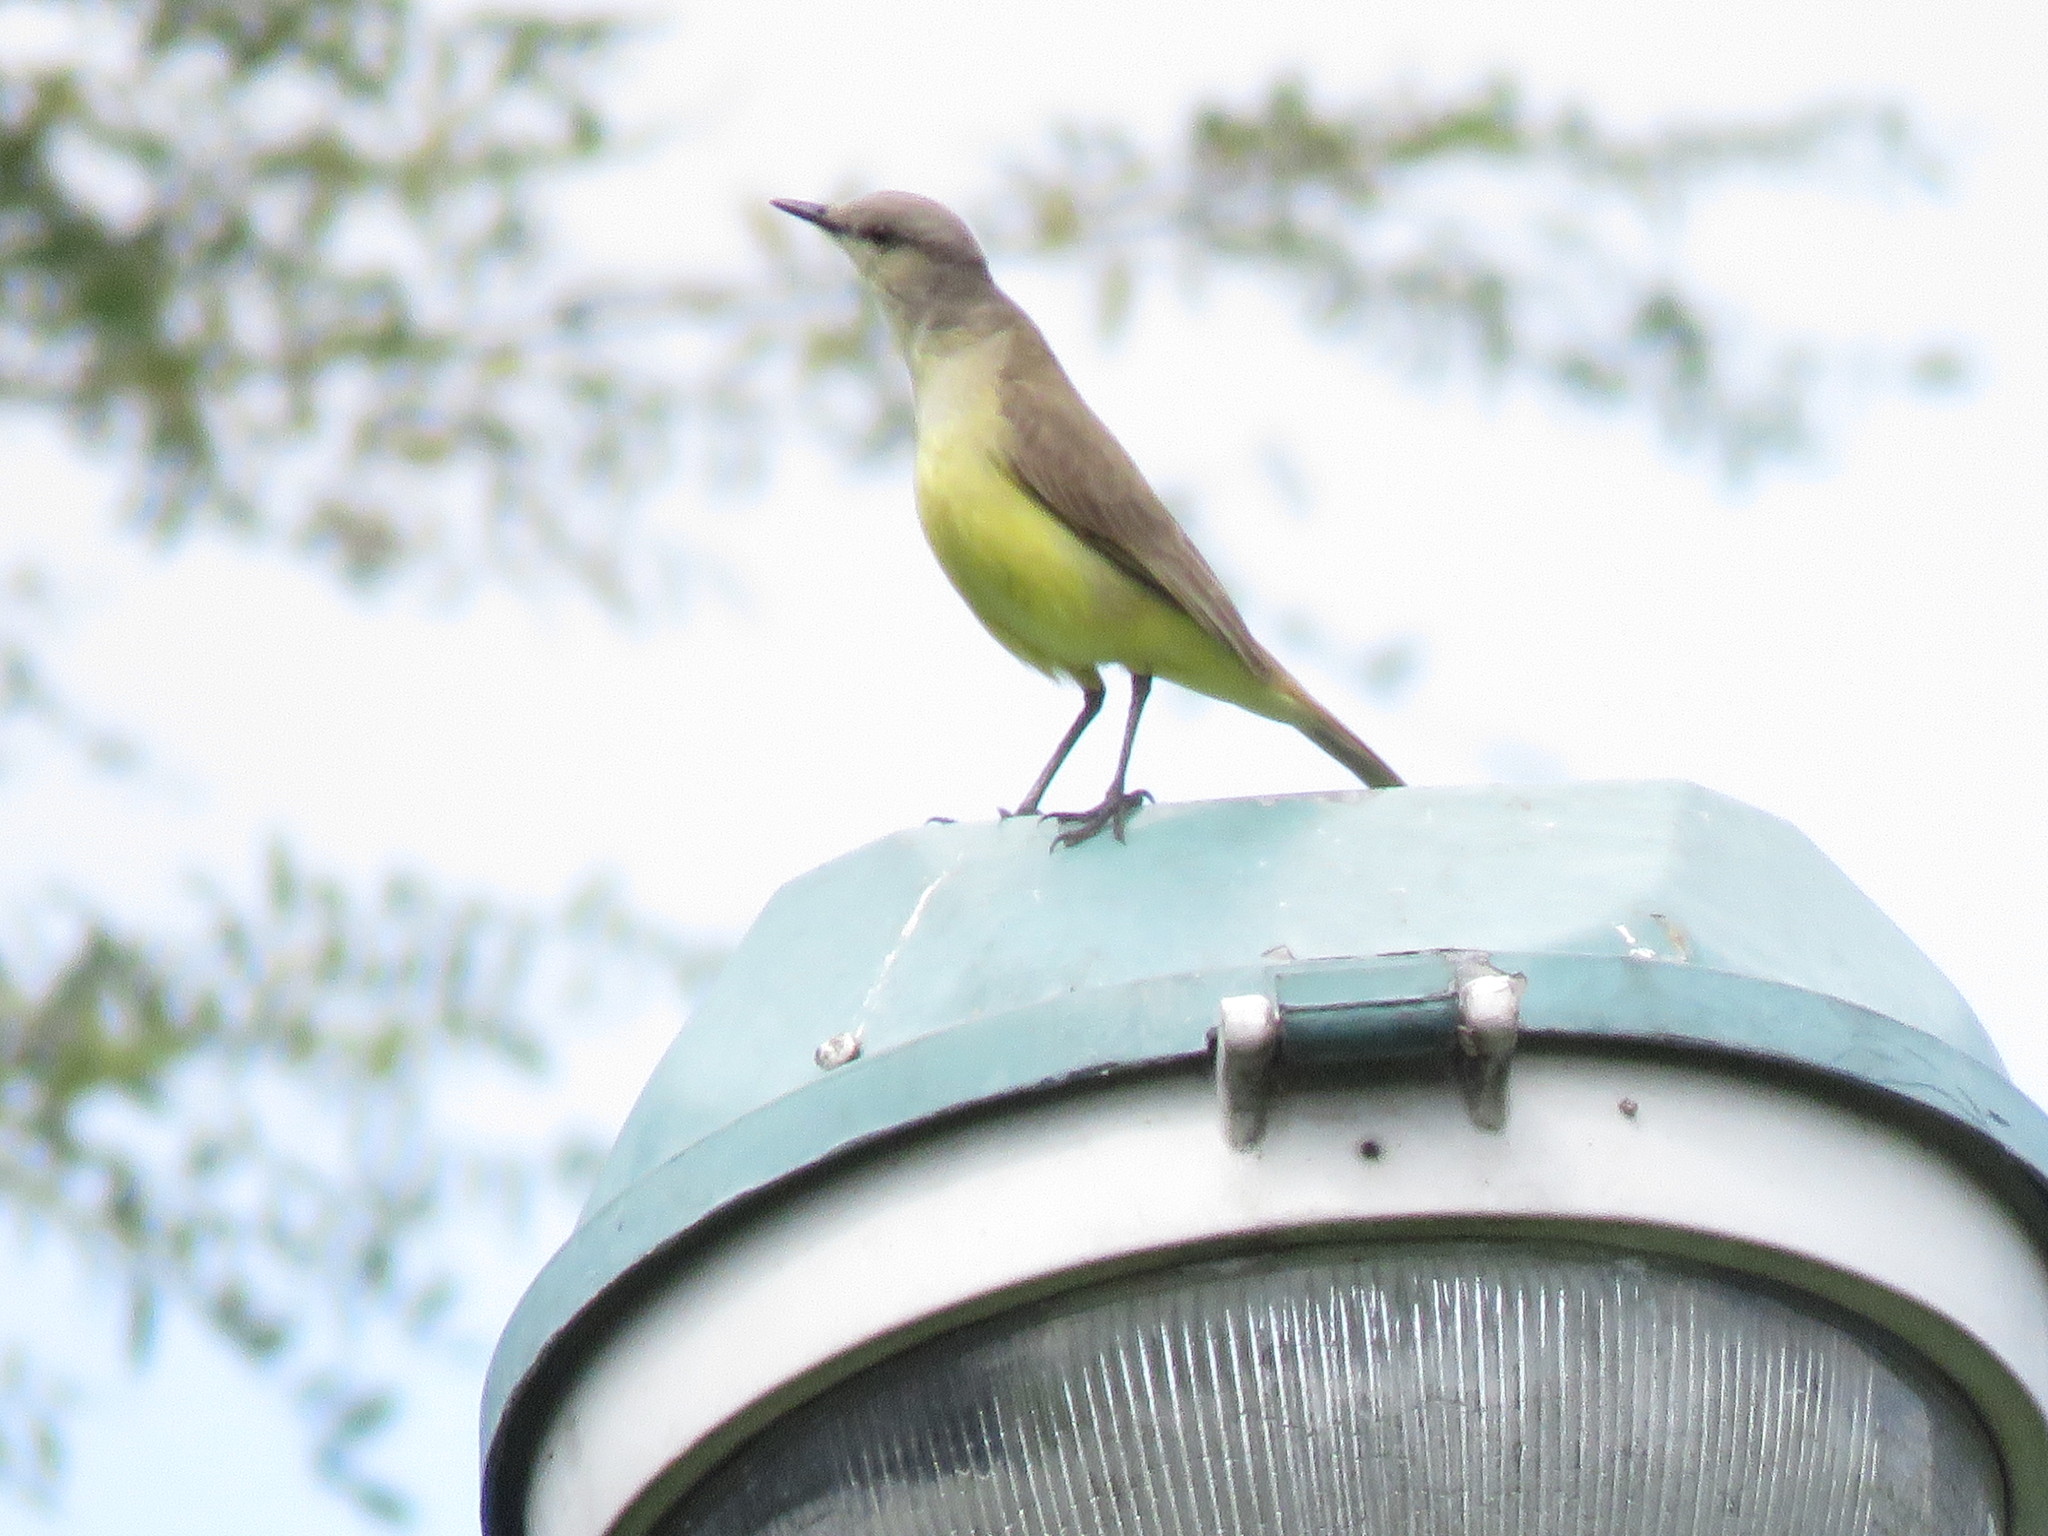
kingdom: Animalia
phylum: Chordata
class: Aves
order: Passeriformes
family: Tyrannidae
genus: Machetornis
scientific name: Machetornis rixosa
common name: Cattle tyrant
